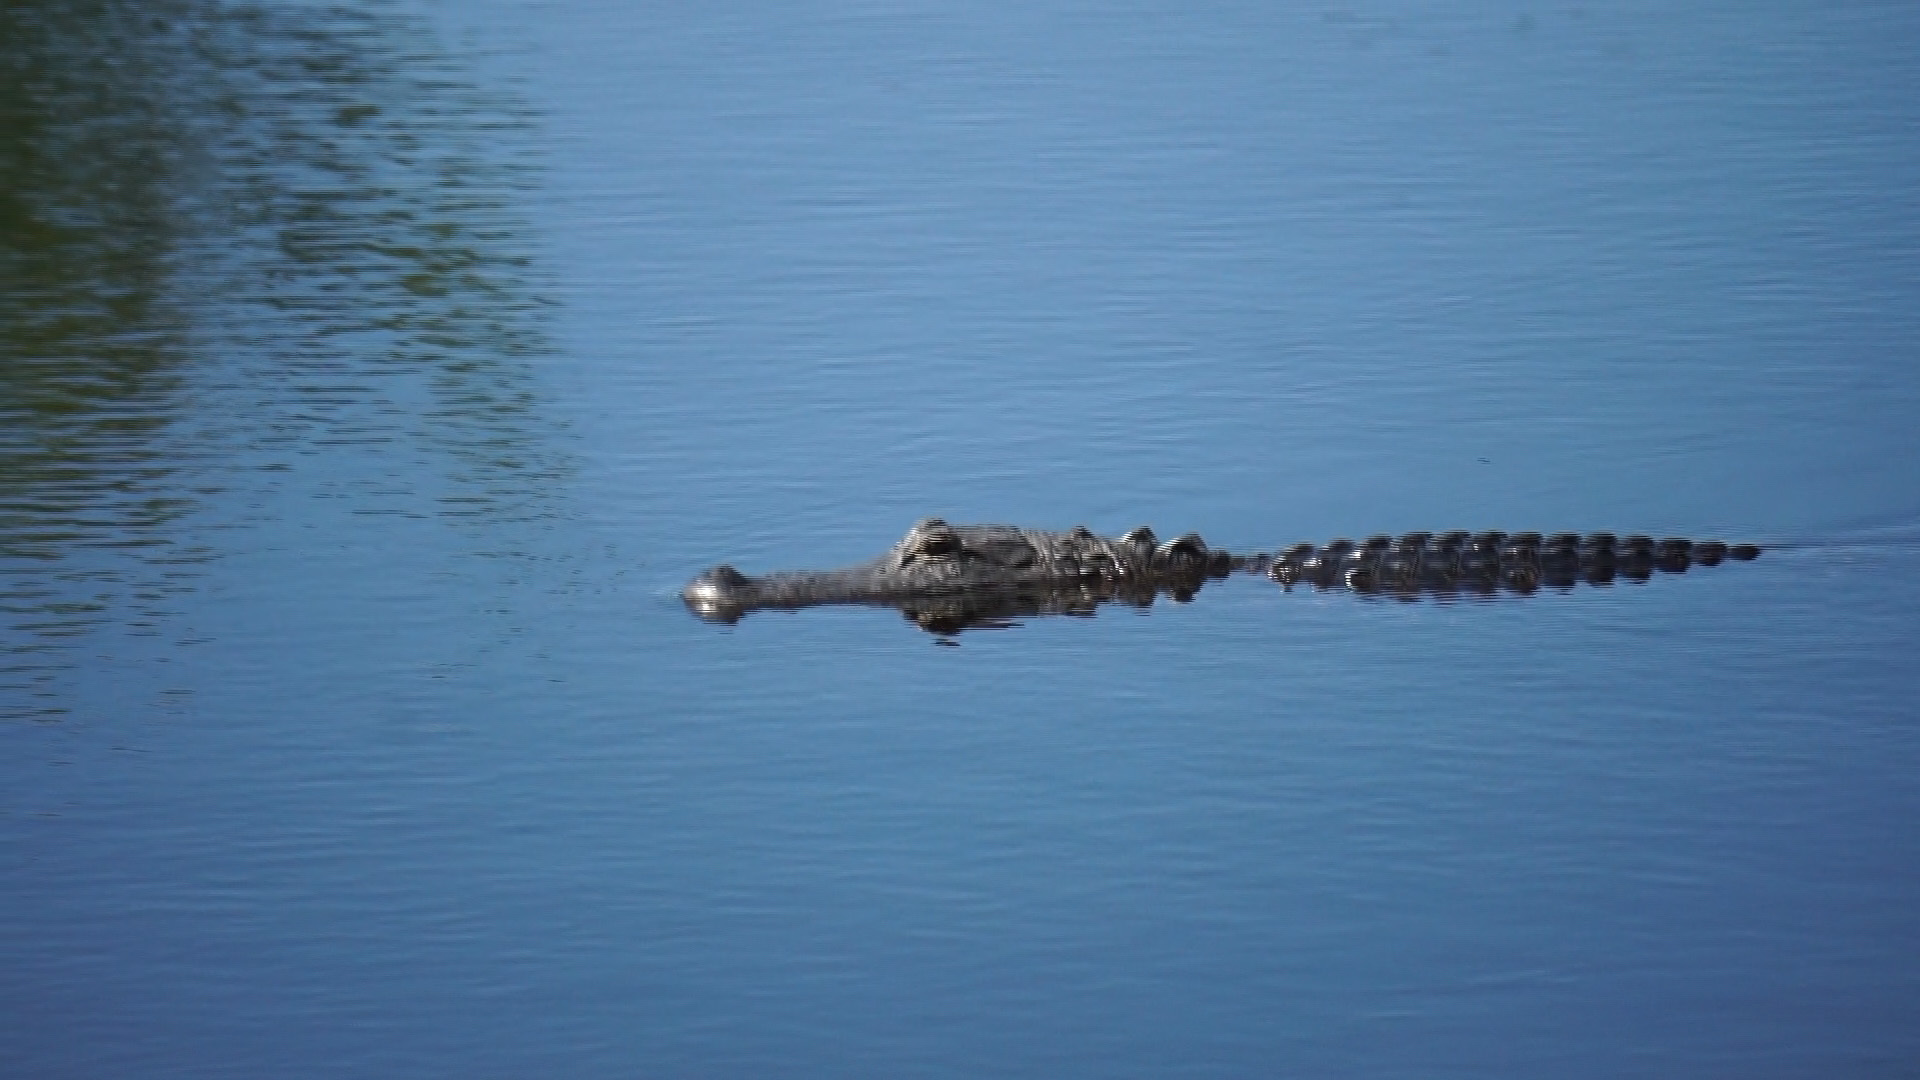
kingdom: Animalia
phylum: Chordata
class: Crocodylia
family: Alligatoridae
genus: Alligator
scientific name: Alligator mississippiensis
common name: American alligator
